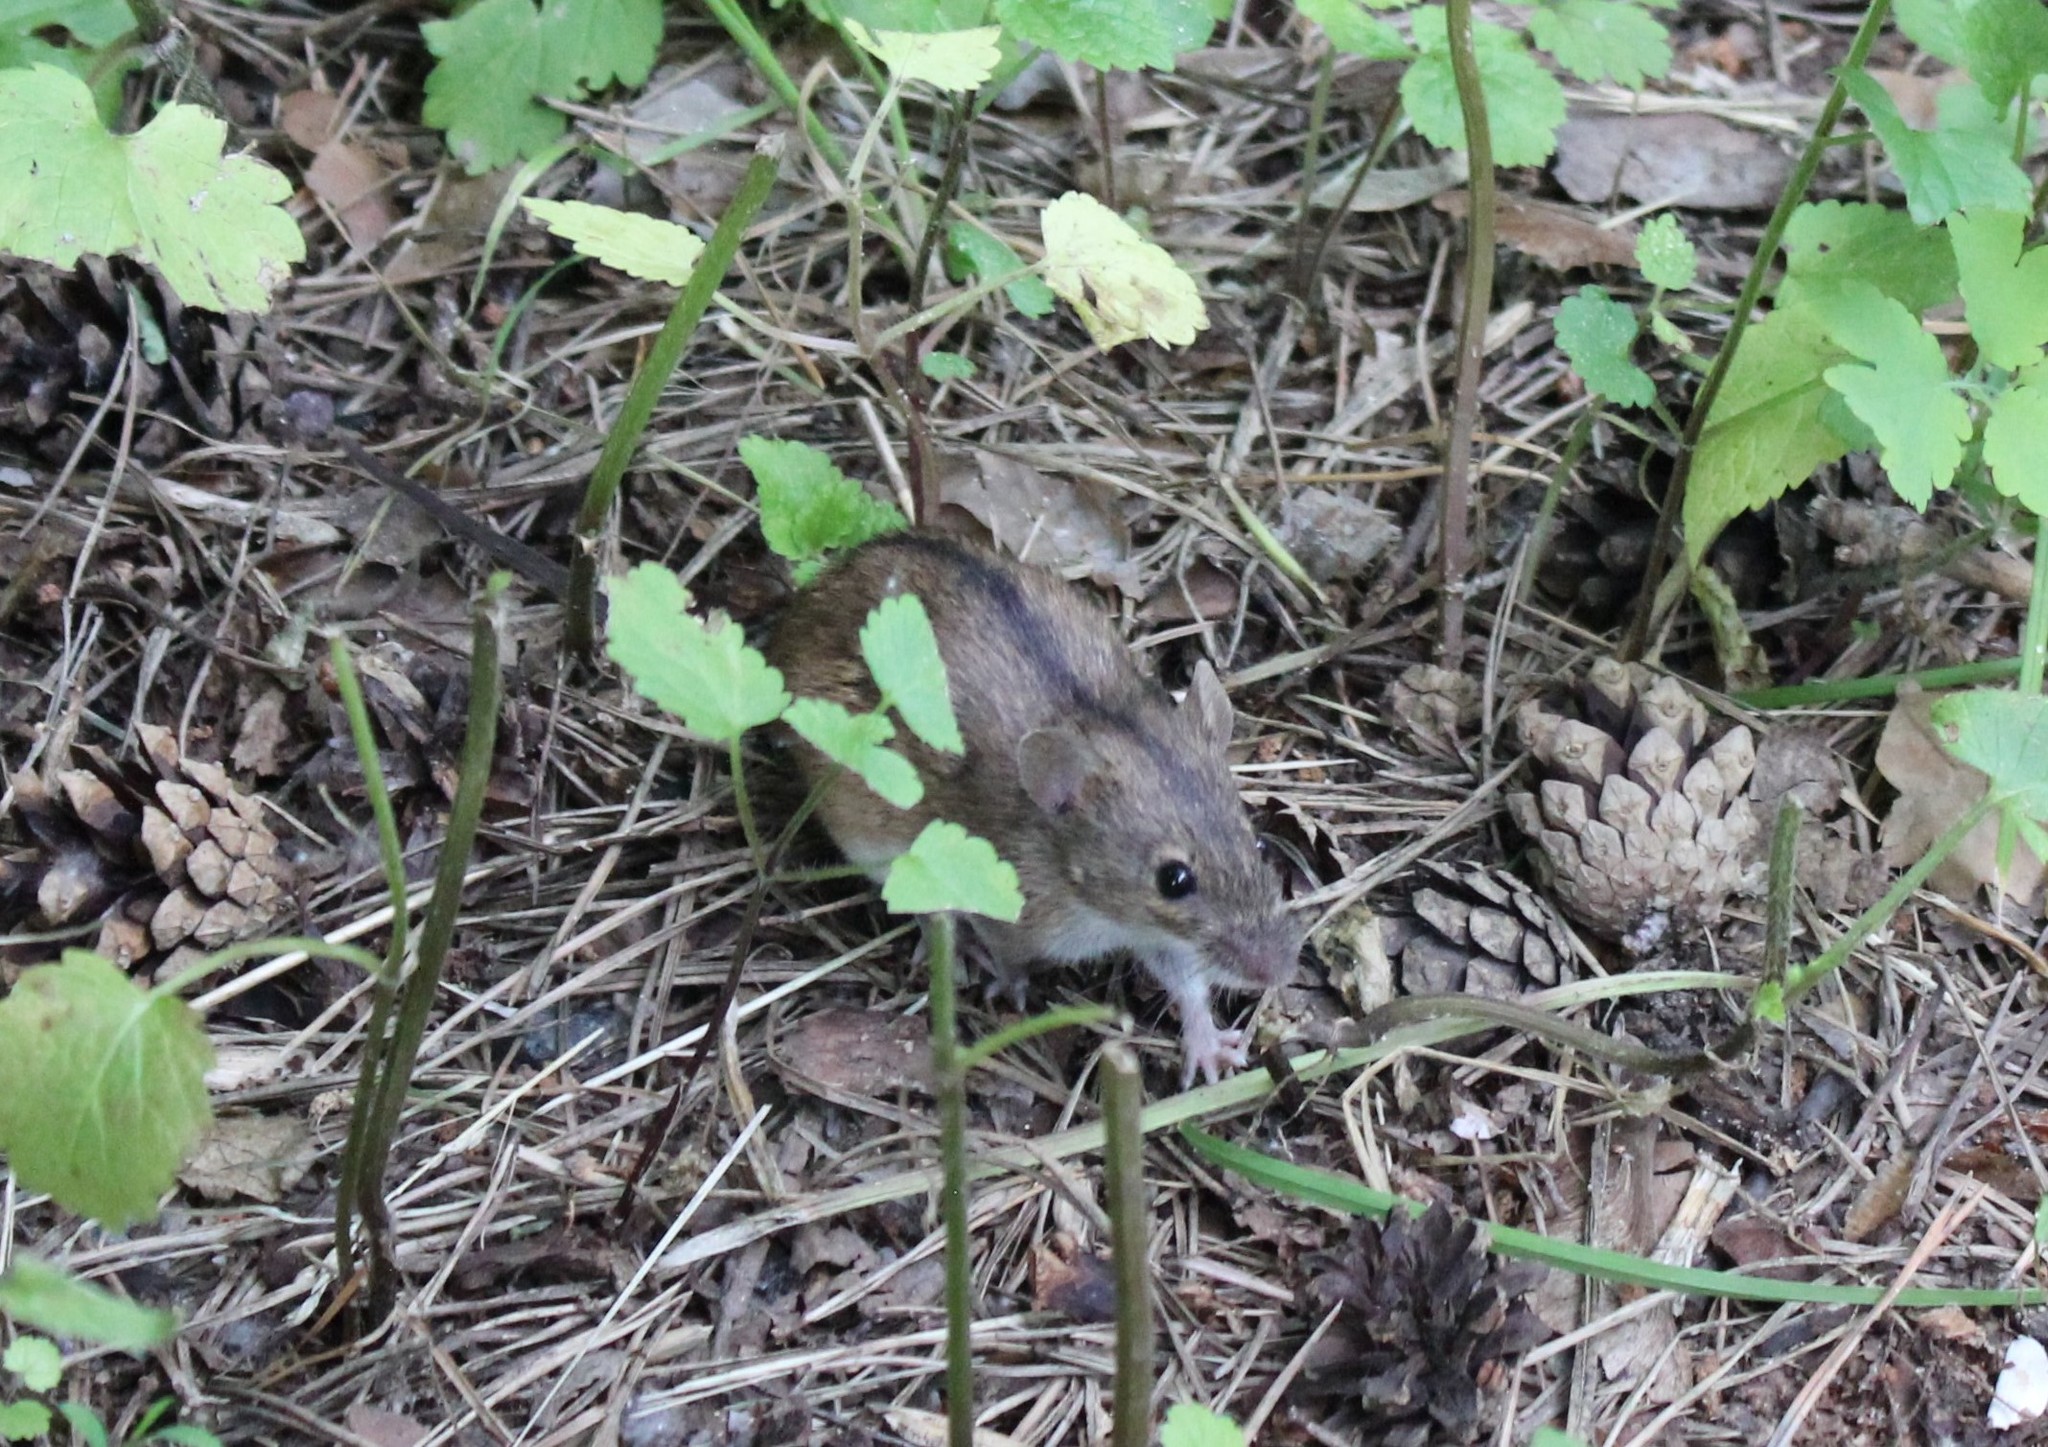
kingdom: Animalia
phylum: Chordata
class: Mammalia
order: Rodentia
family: Muridae
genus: Apodemus
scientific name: Apodemus agrarius
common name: Striped field mouse
